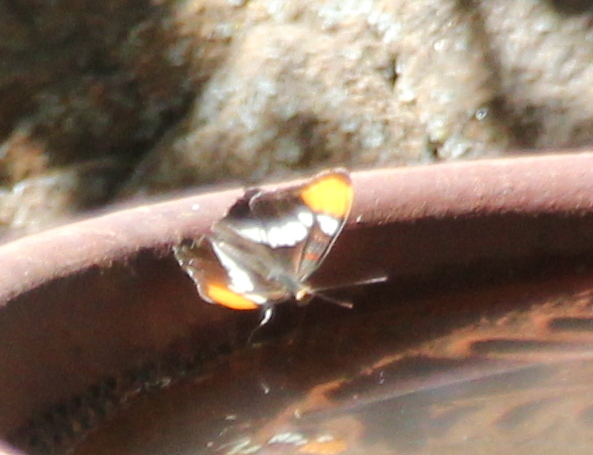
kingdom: Animalia
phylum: Arthropoda
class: Insecta
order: Lepidoptera
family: Nymphalidae
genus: Limenitis
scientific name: Limenitis bredowii
